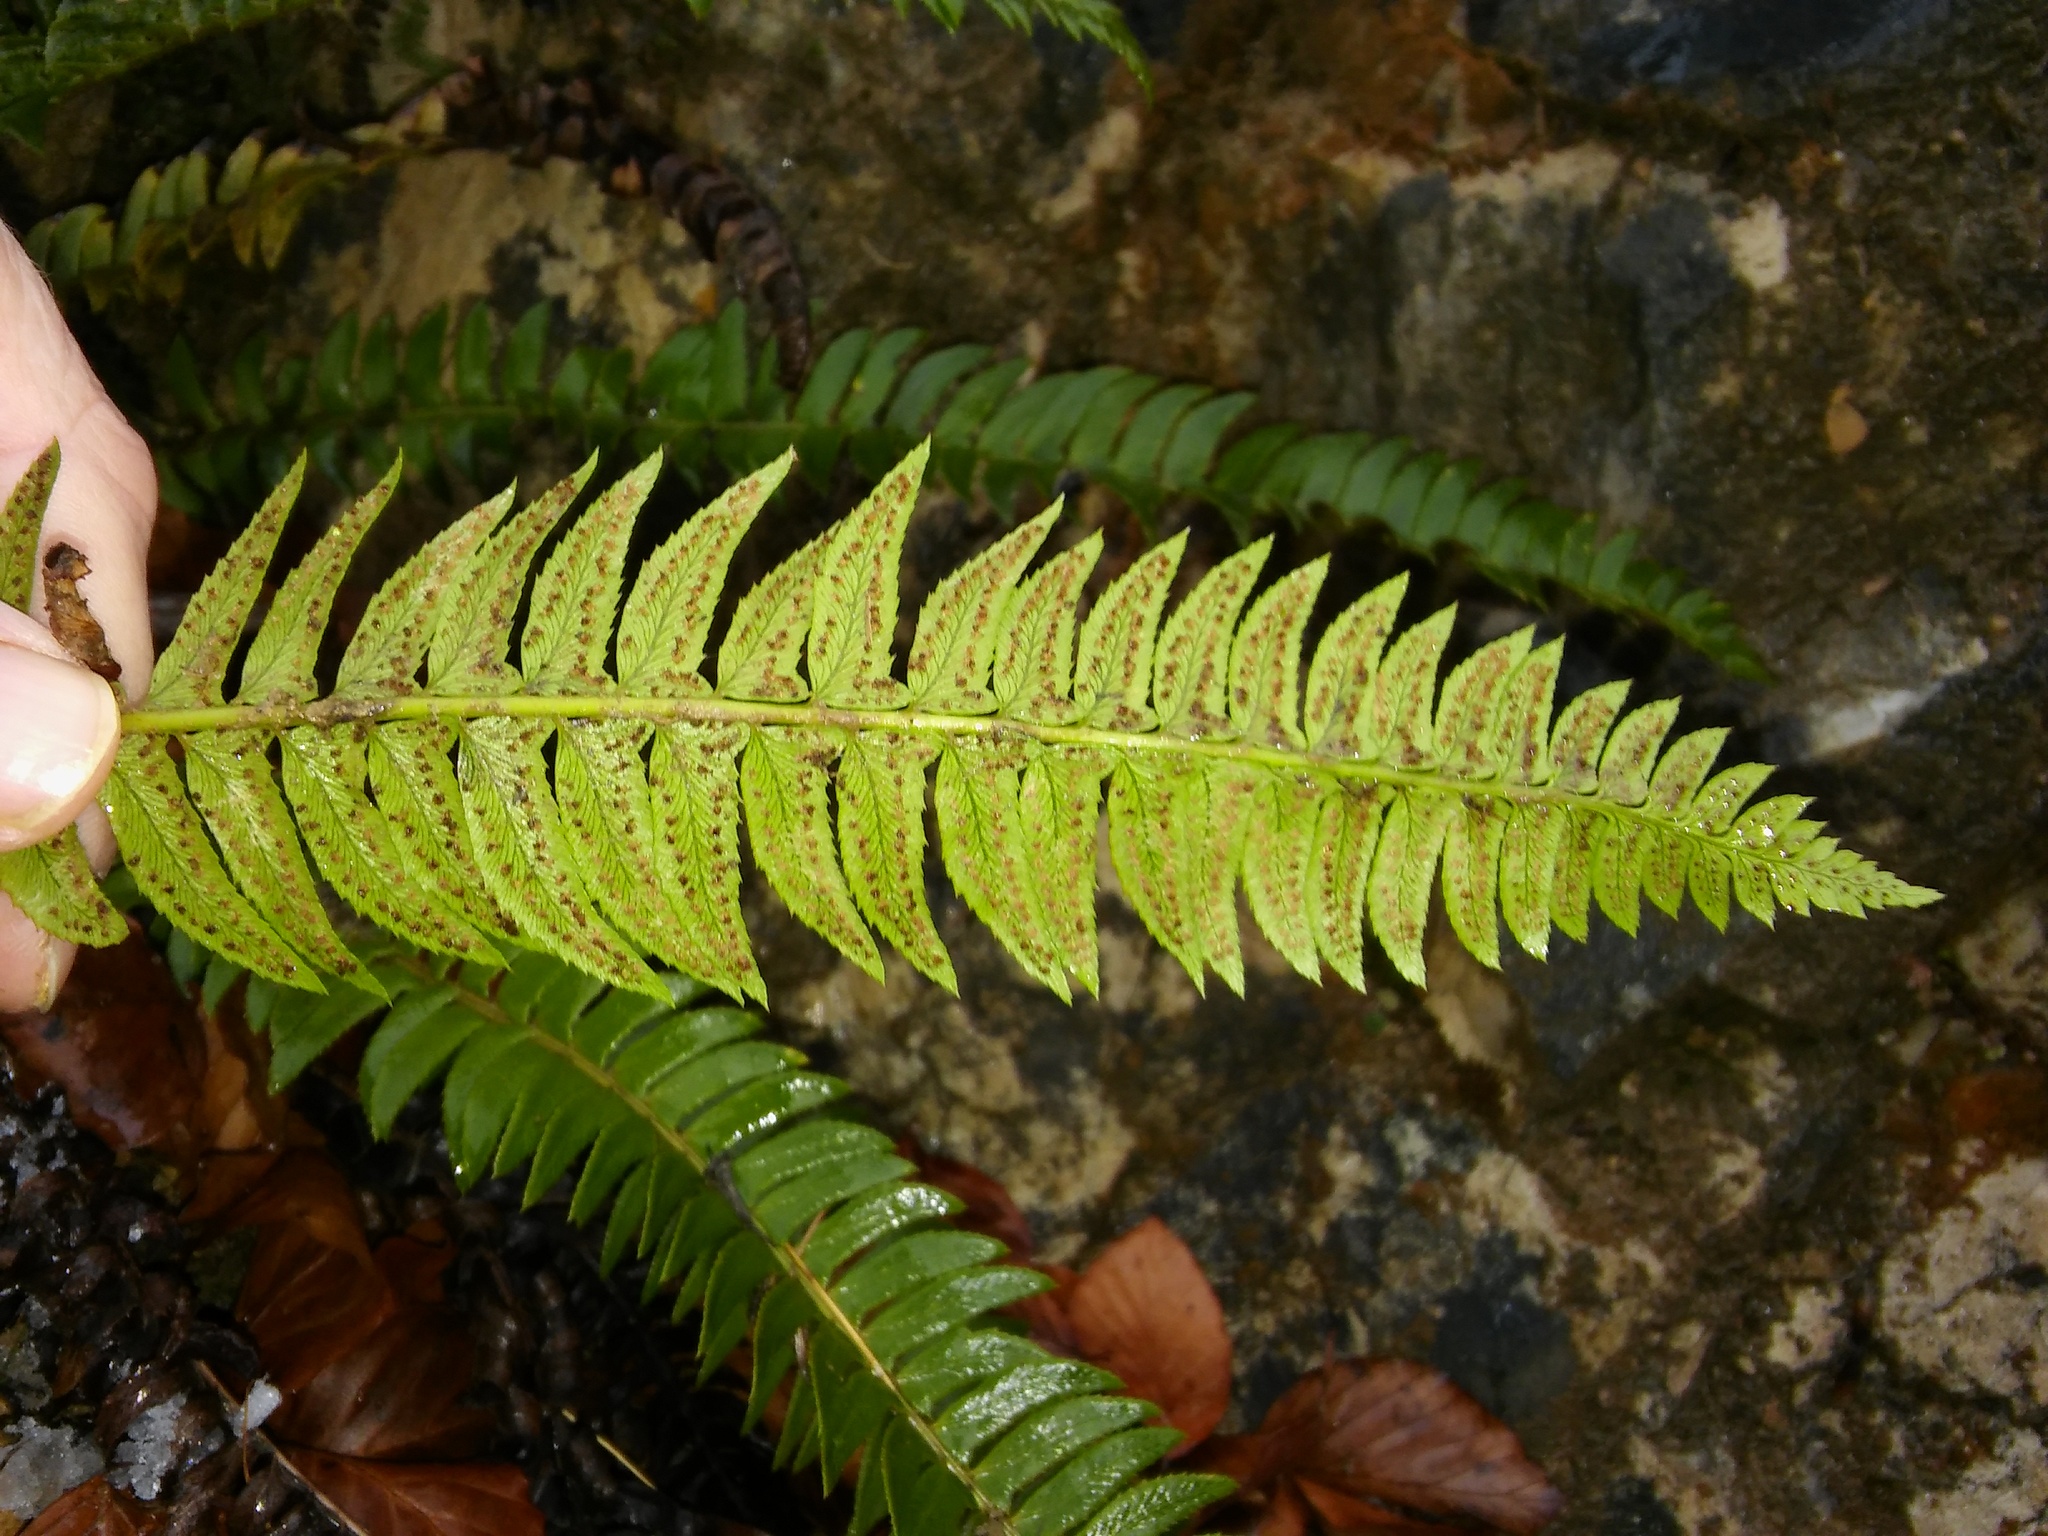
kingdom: Plantae
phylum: Tracheophyta
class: Polypodiopsida
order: Polypodiales
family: Dryopteridaceae
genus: Polystichum
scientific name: Polystichum lonchitis
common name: Holly fern
